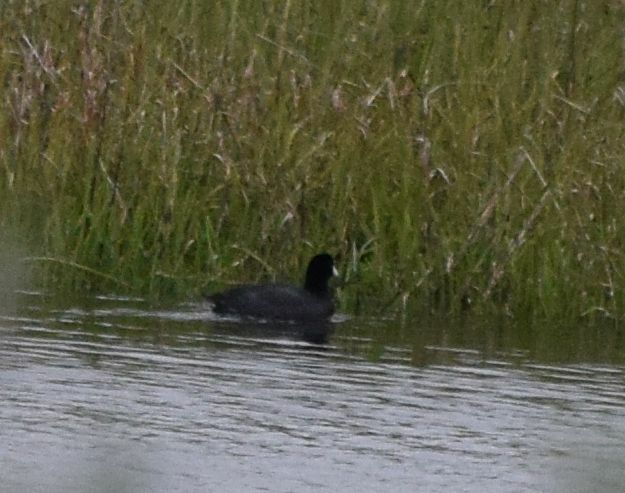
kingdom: Animalia
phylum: Chordata
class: Aves
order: Gruiformes
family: Rallidae
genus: Fulica
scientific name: Fulica americana
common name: American coot
